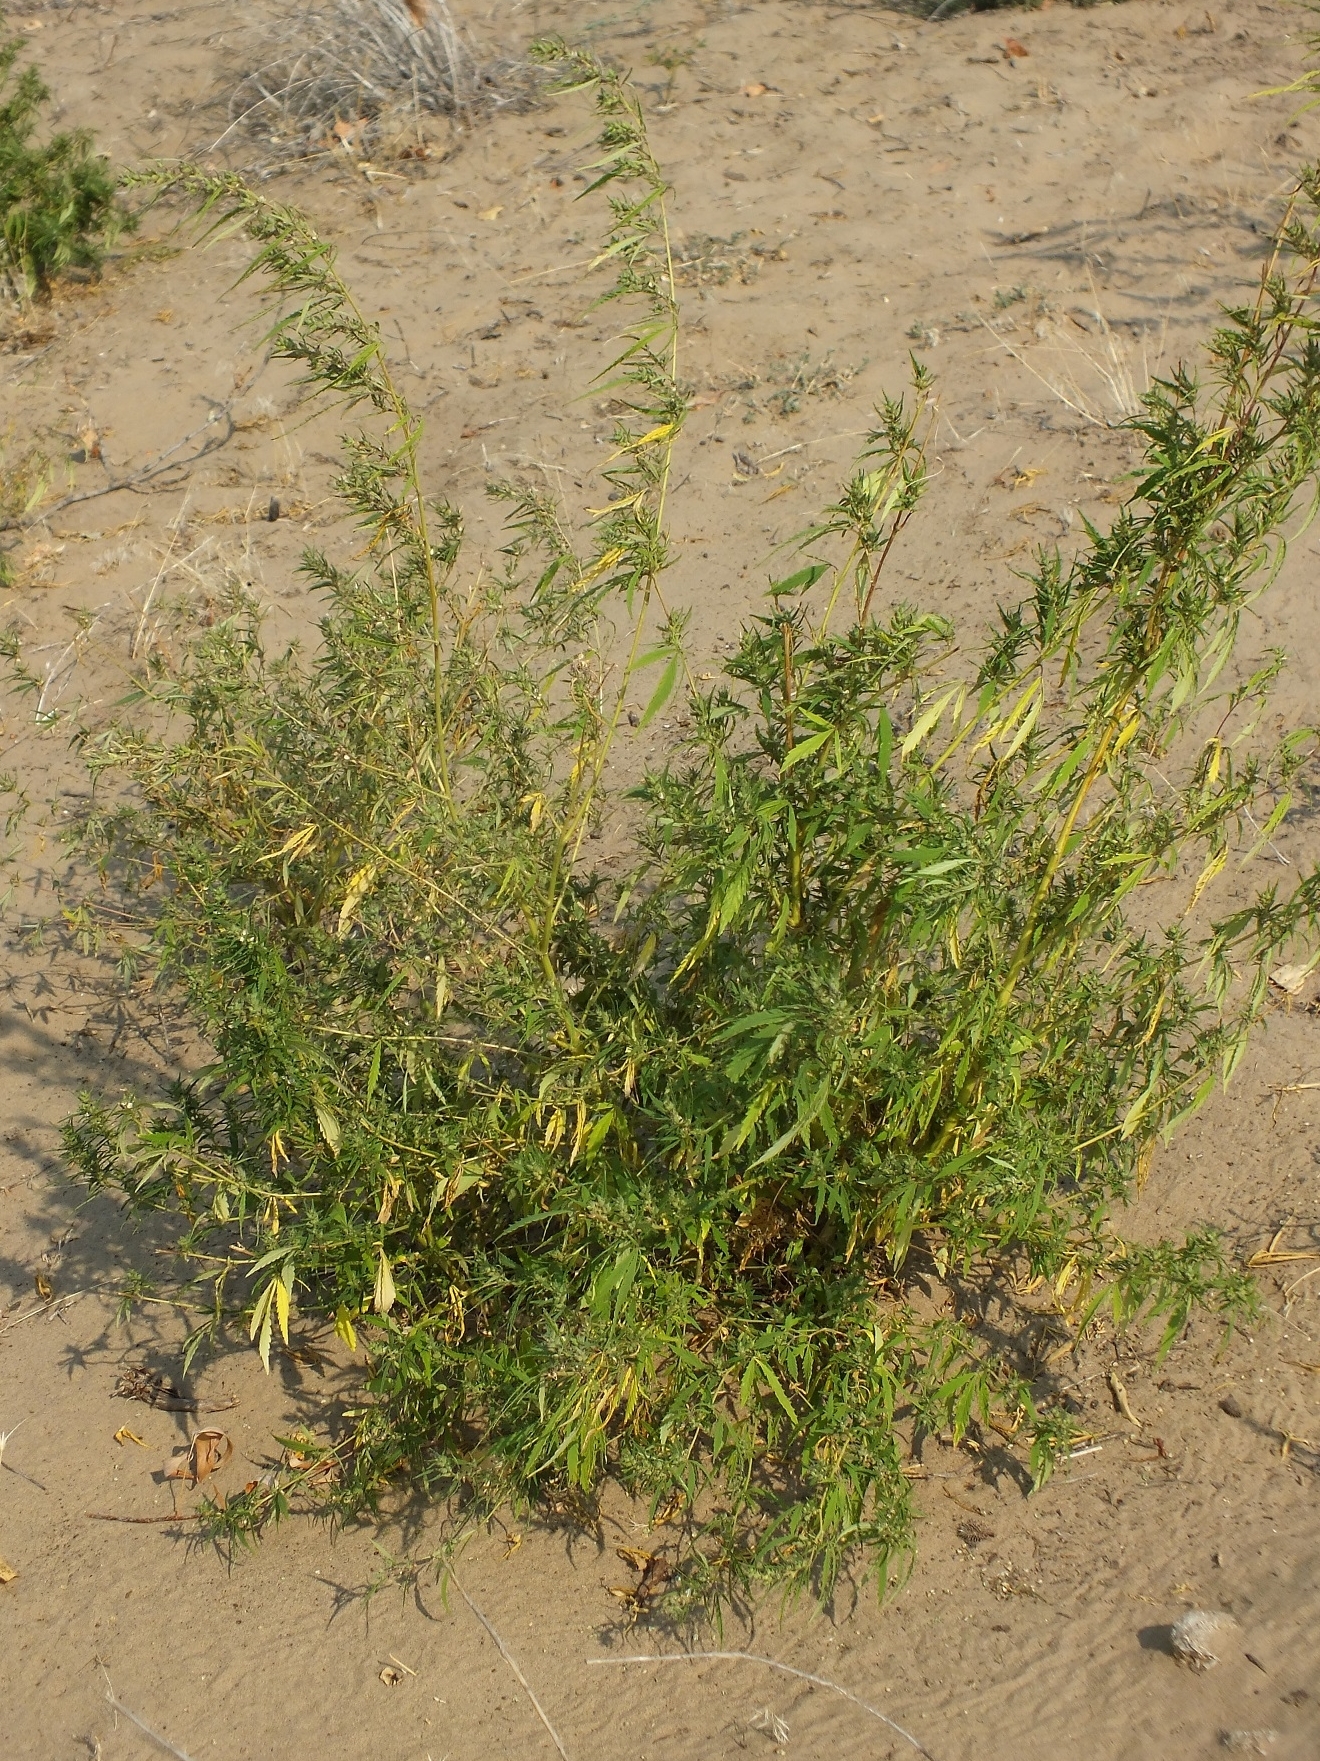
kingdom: Plantae
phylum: Tracheophyta
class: Magnoliopsida
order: Rosales
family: Cannabaceae
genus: Cannabis
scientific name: Cannabis sativa
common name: Hemp
